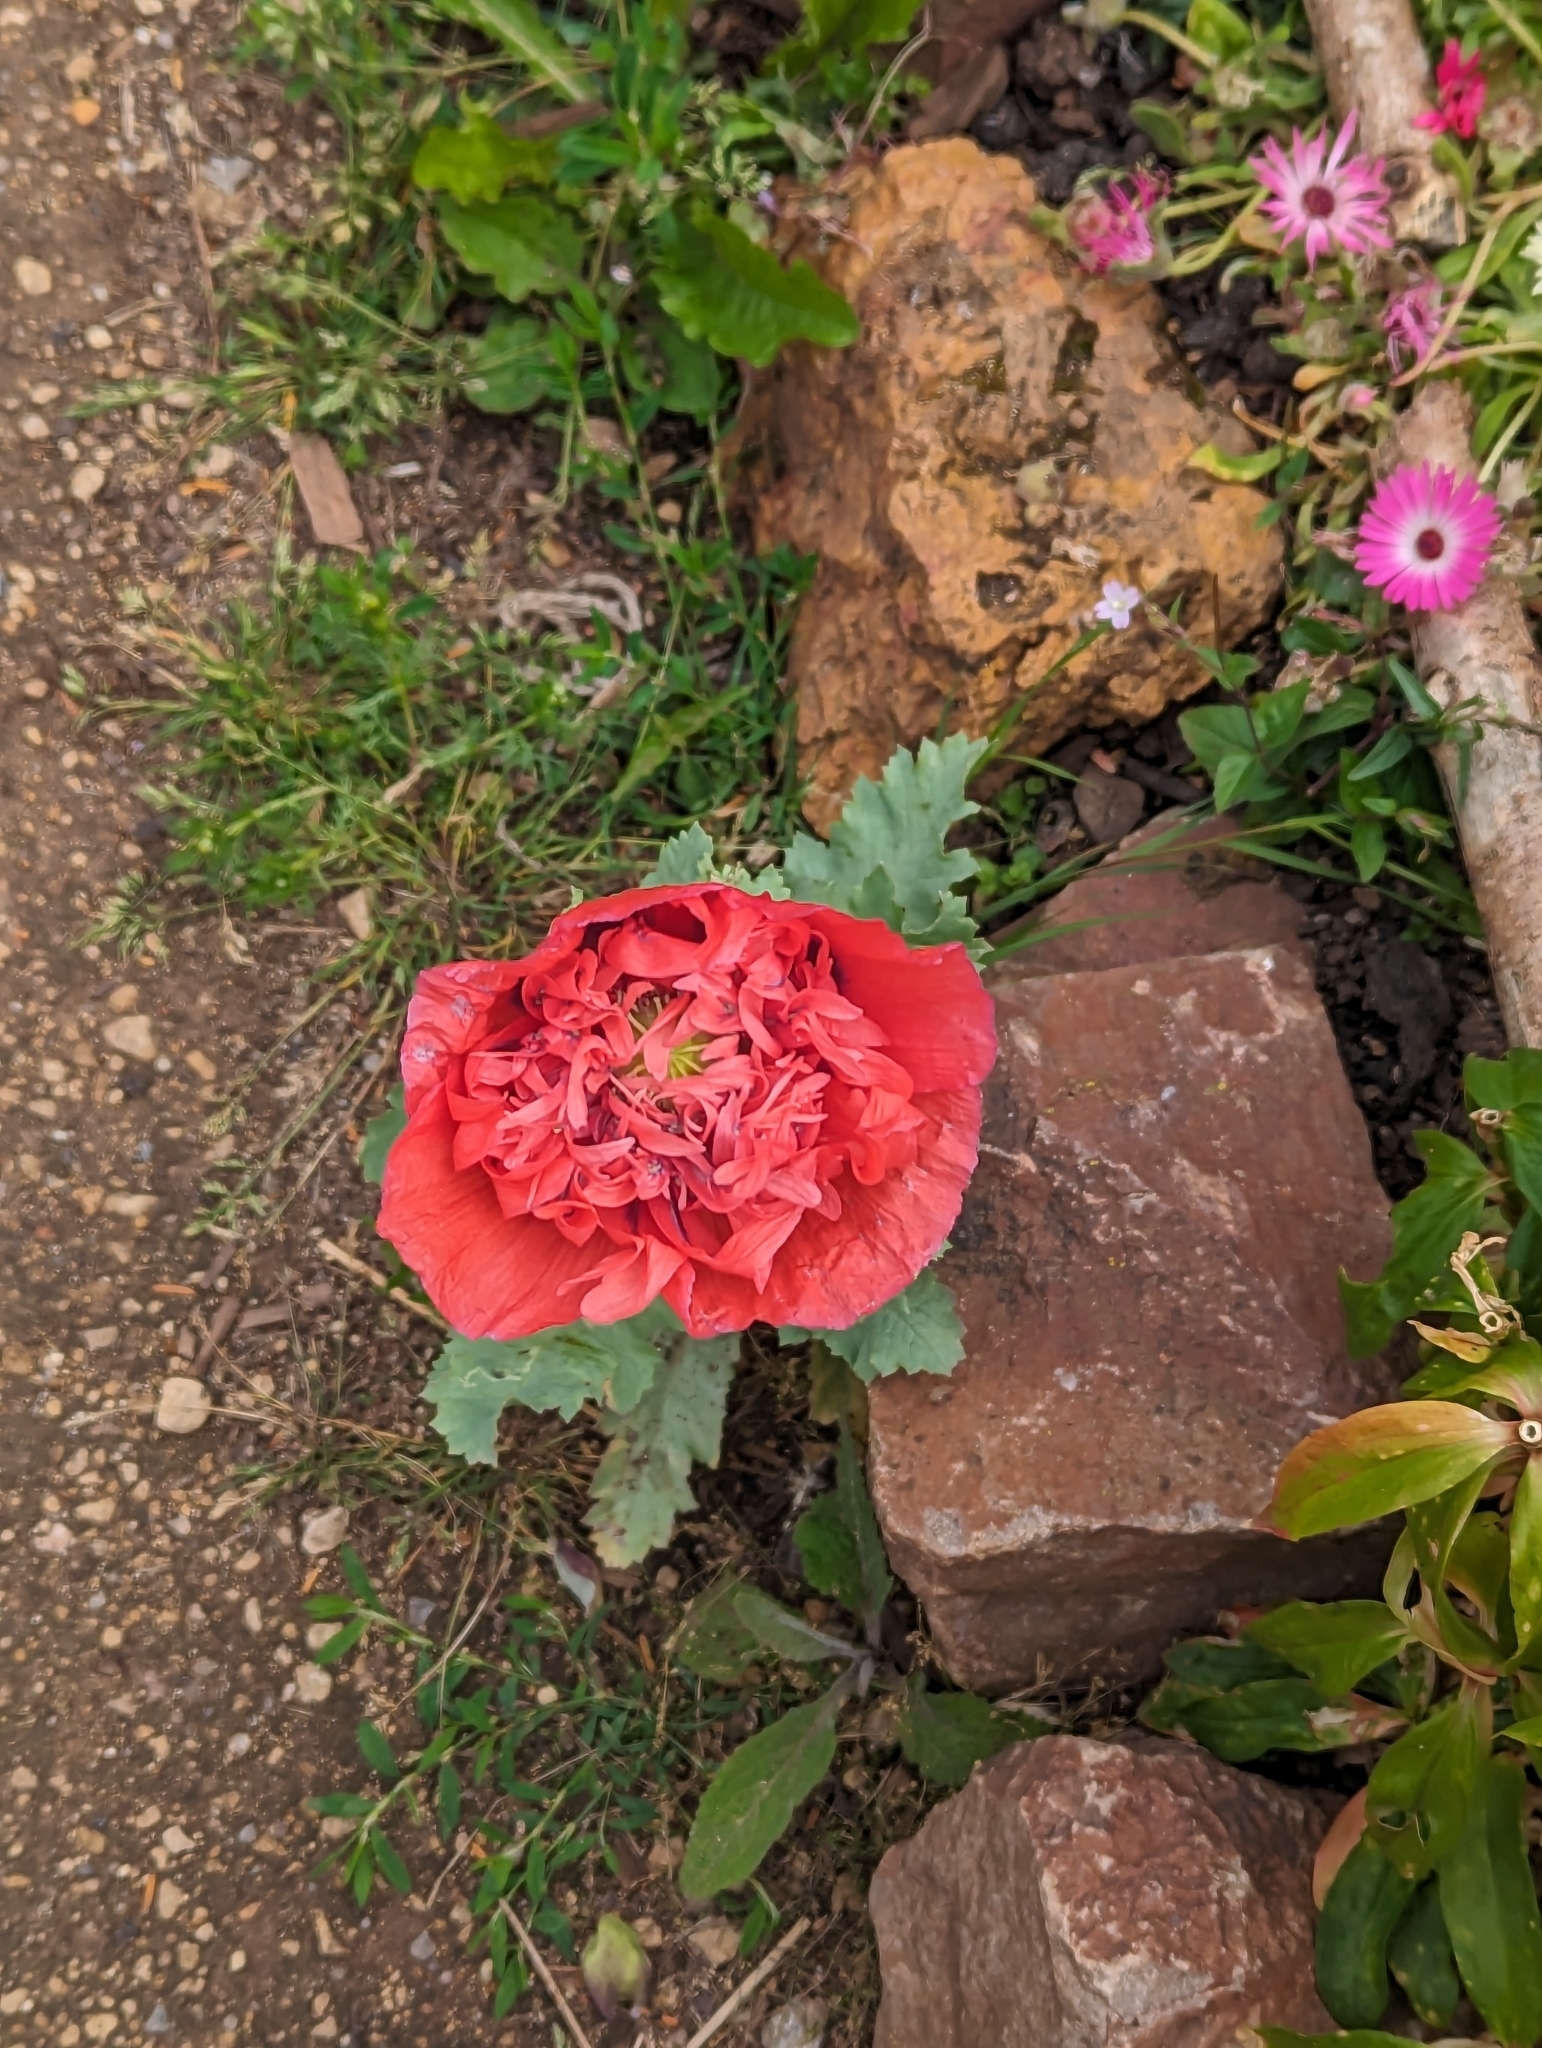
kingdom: Plantae
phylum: Tracheophyta
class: Magnoliopsida
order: Ranunculales
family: Papaveraceae
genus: Papaver
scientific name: Papaver somniferum
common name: Opium poppy
